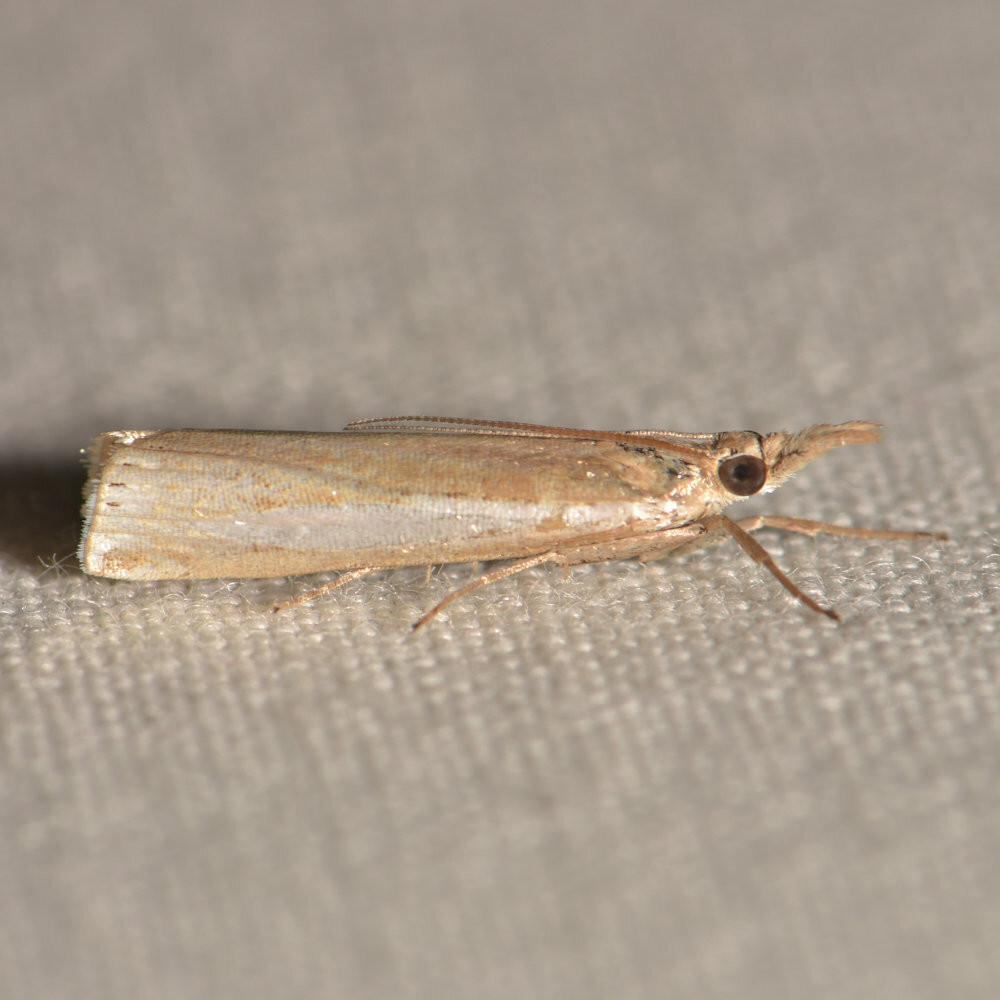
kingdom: Animalia
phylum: Arthropoda
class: Insecta
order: Lepidoptera
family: Crambidae
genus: Crambus
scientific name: Crambus praefectellus
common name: Common grass-veneer
